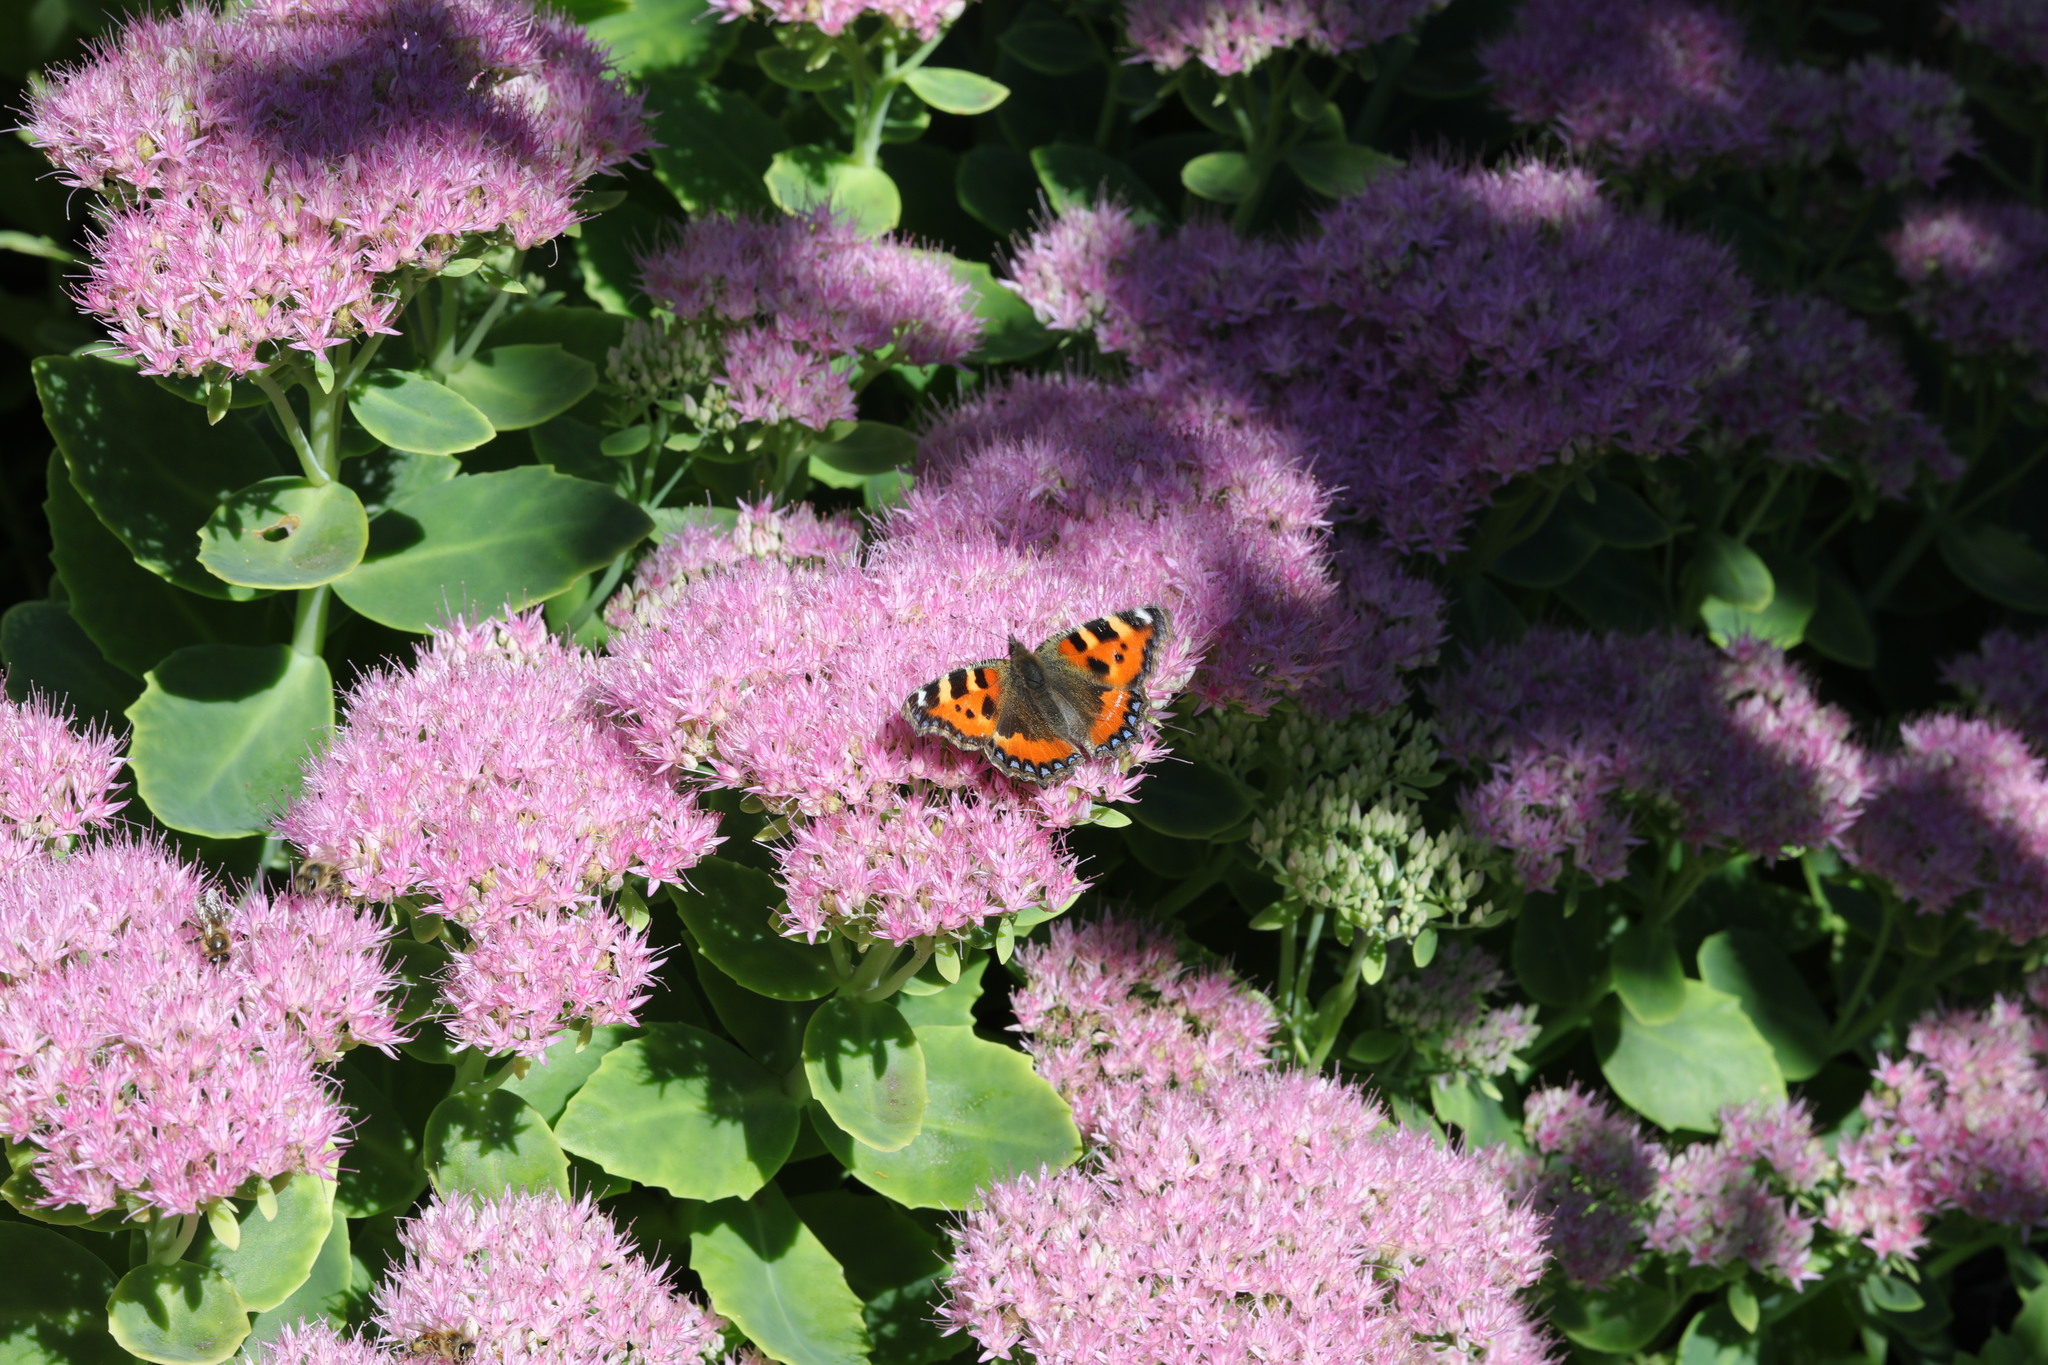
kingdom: Animalia
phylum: Arthropoda
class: Insecta
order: Lepidoptera
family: Nymphalidae
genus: Aglais
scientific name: Aglais urticae
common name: Small tortoiseshell
